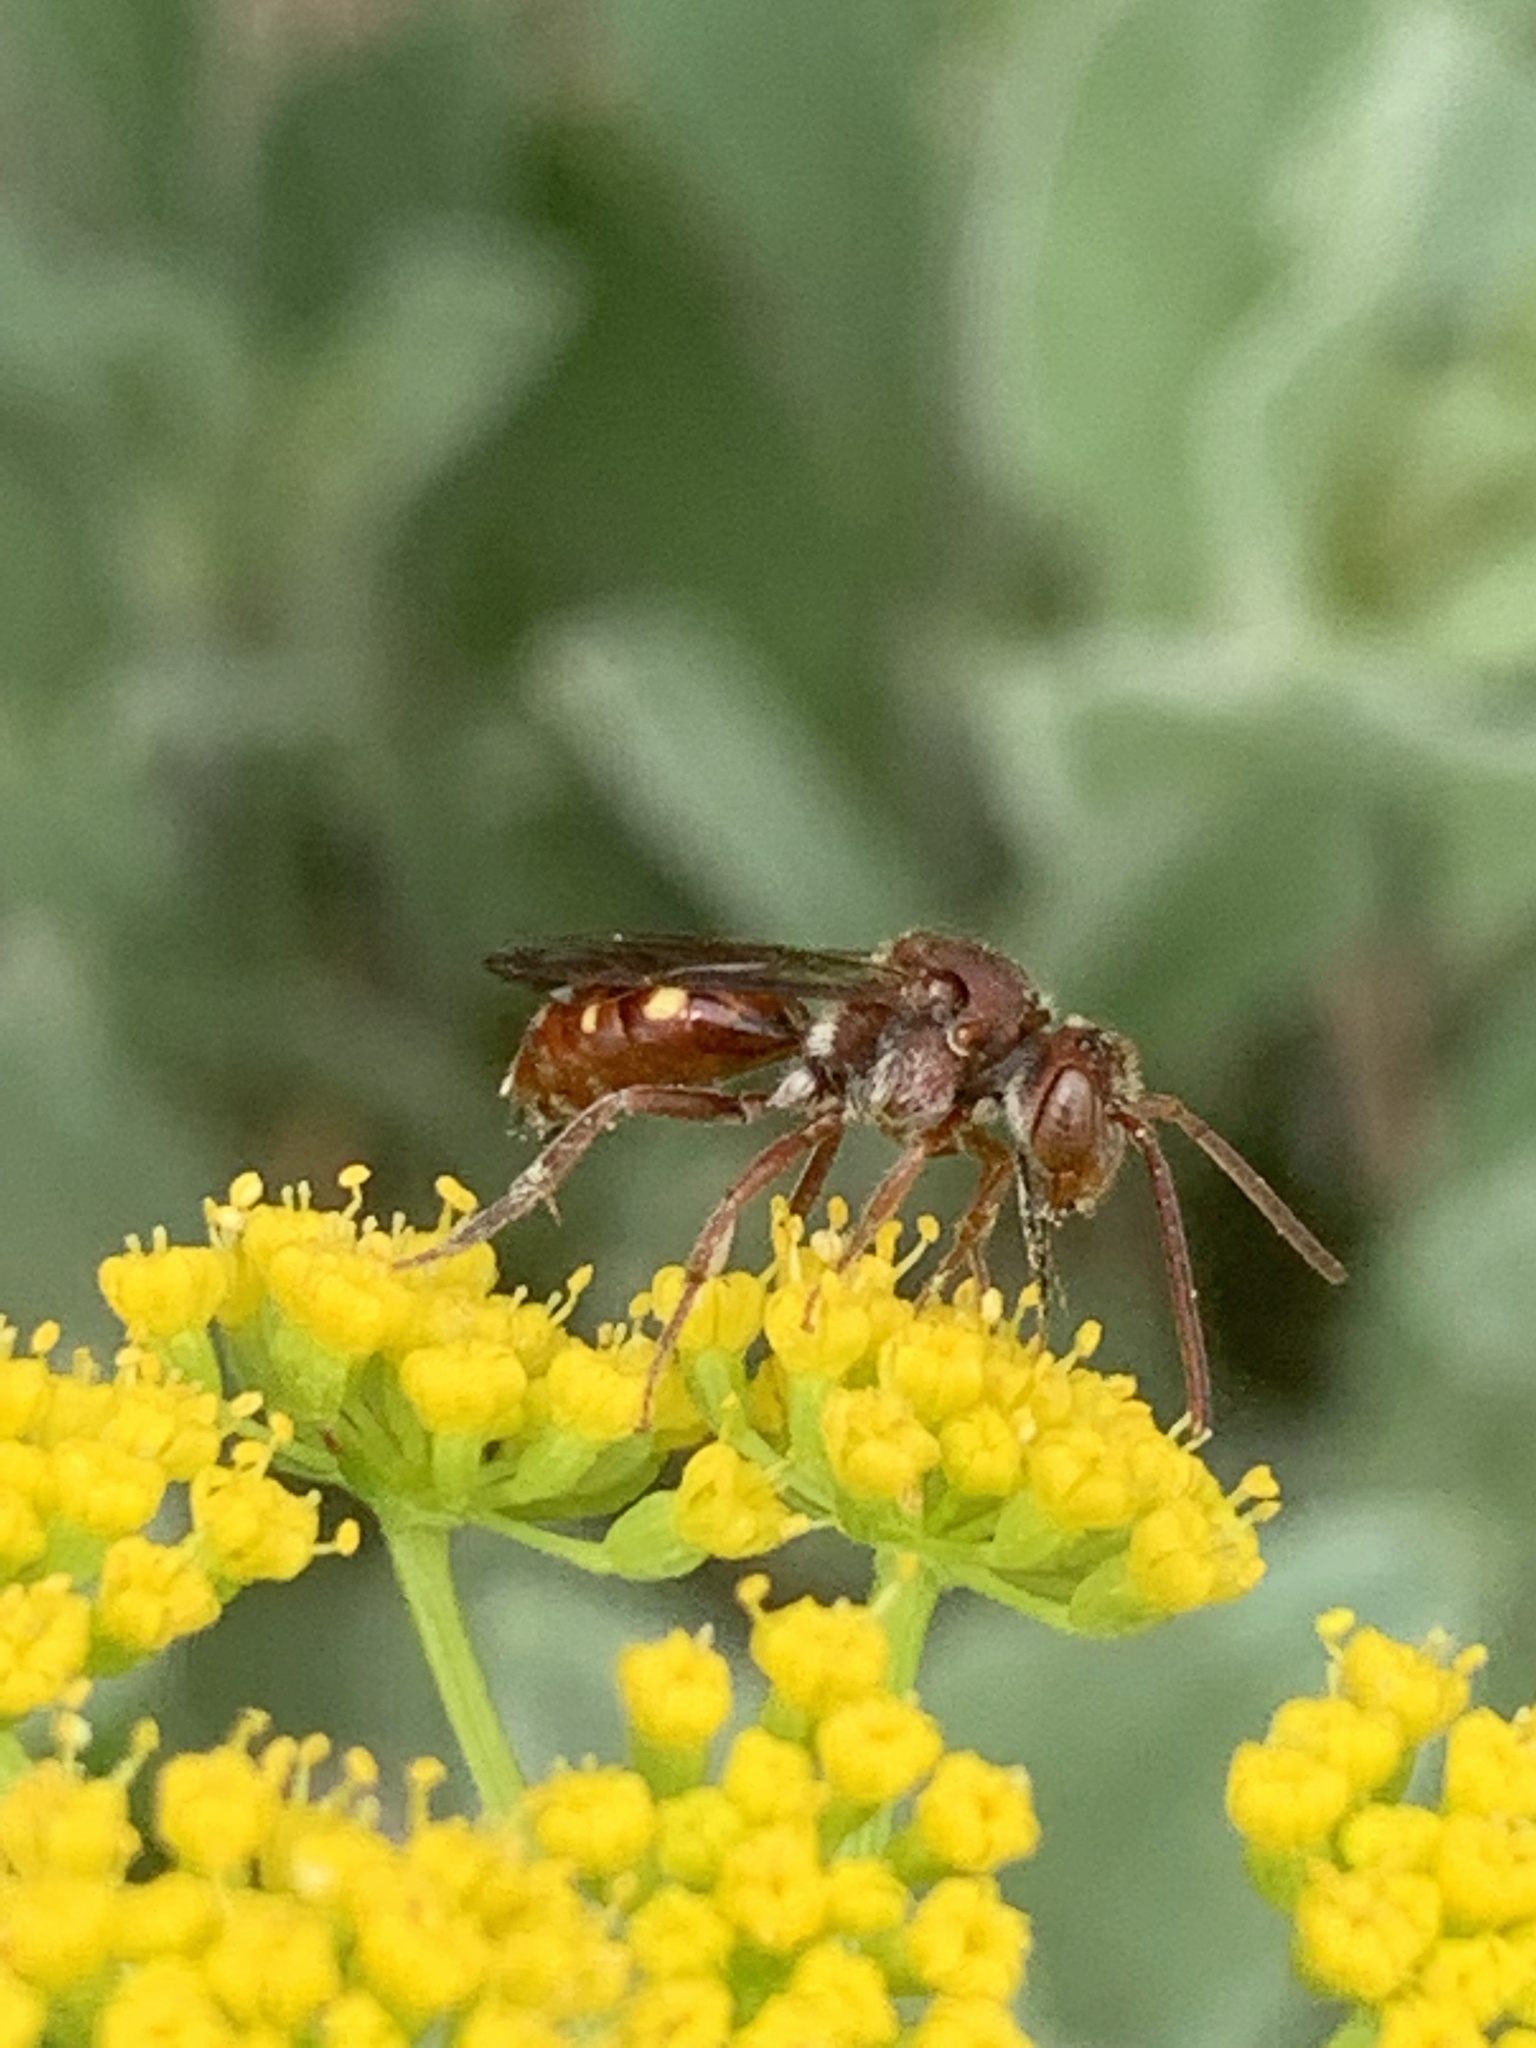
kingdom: Animalia
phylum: Arthropoda
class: Insecta
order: Hymenoptera
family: Apidae
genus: Nomada
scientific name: Nomada
